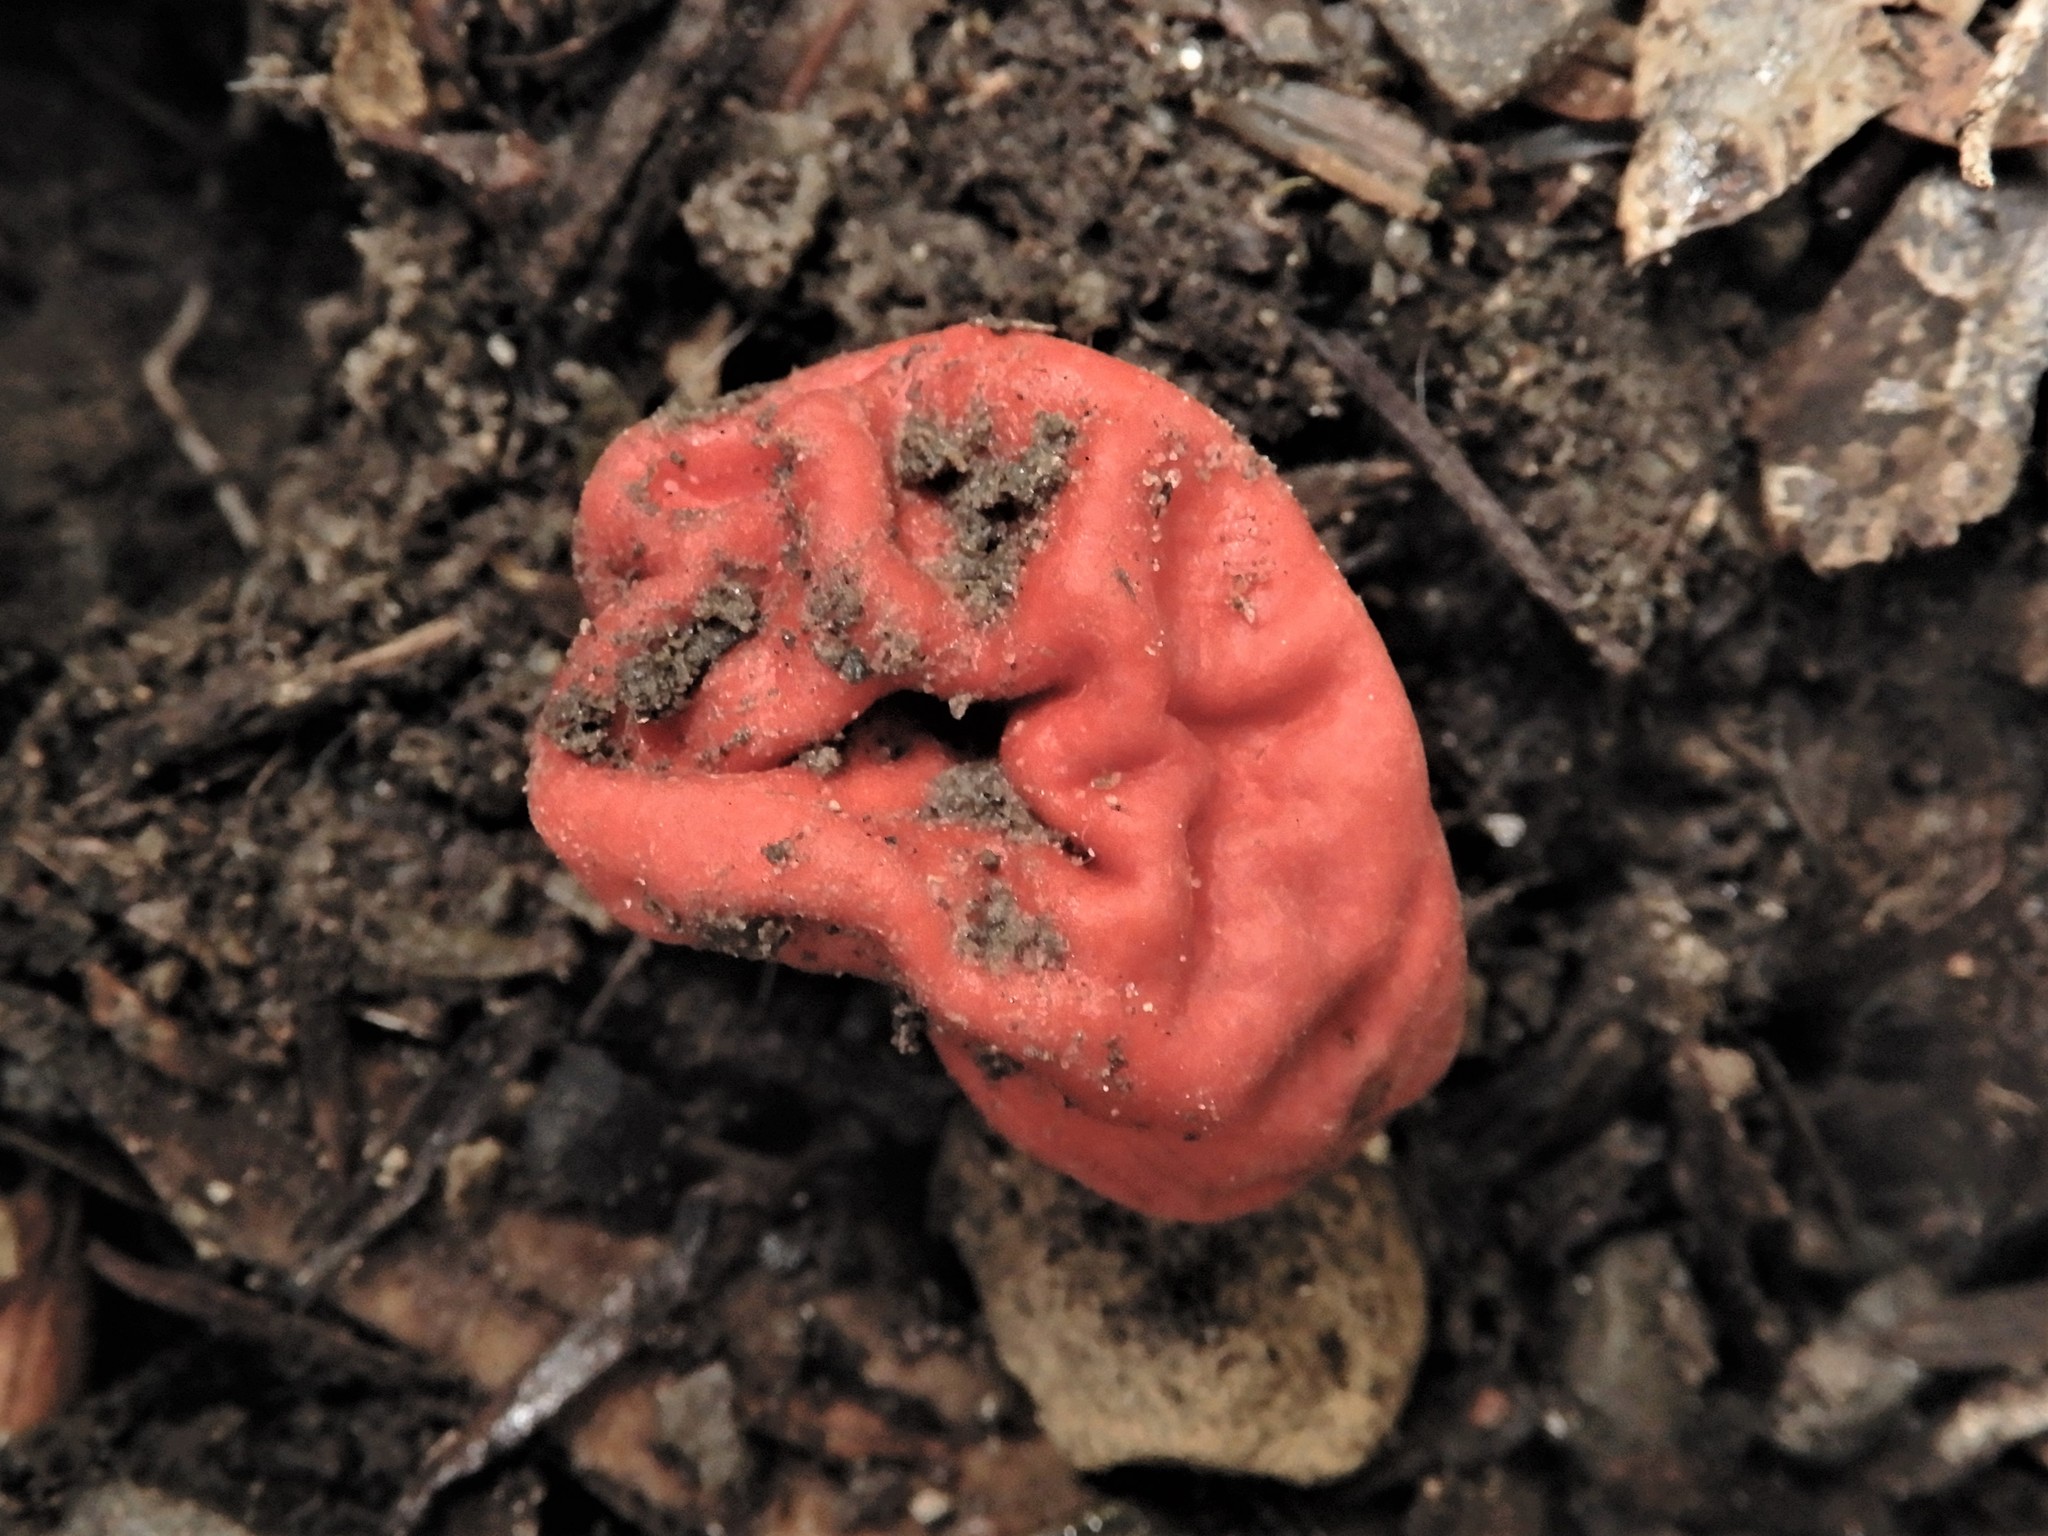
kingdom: Fungi
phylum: Ascomycota
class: Pezizomycetes
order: Pezizales
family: Pyronemataceae
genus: Paurocotylis
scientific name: Paurocotylis pila
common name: Scarlet berry truffle
